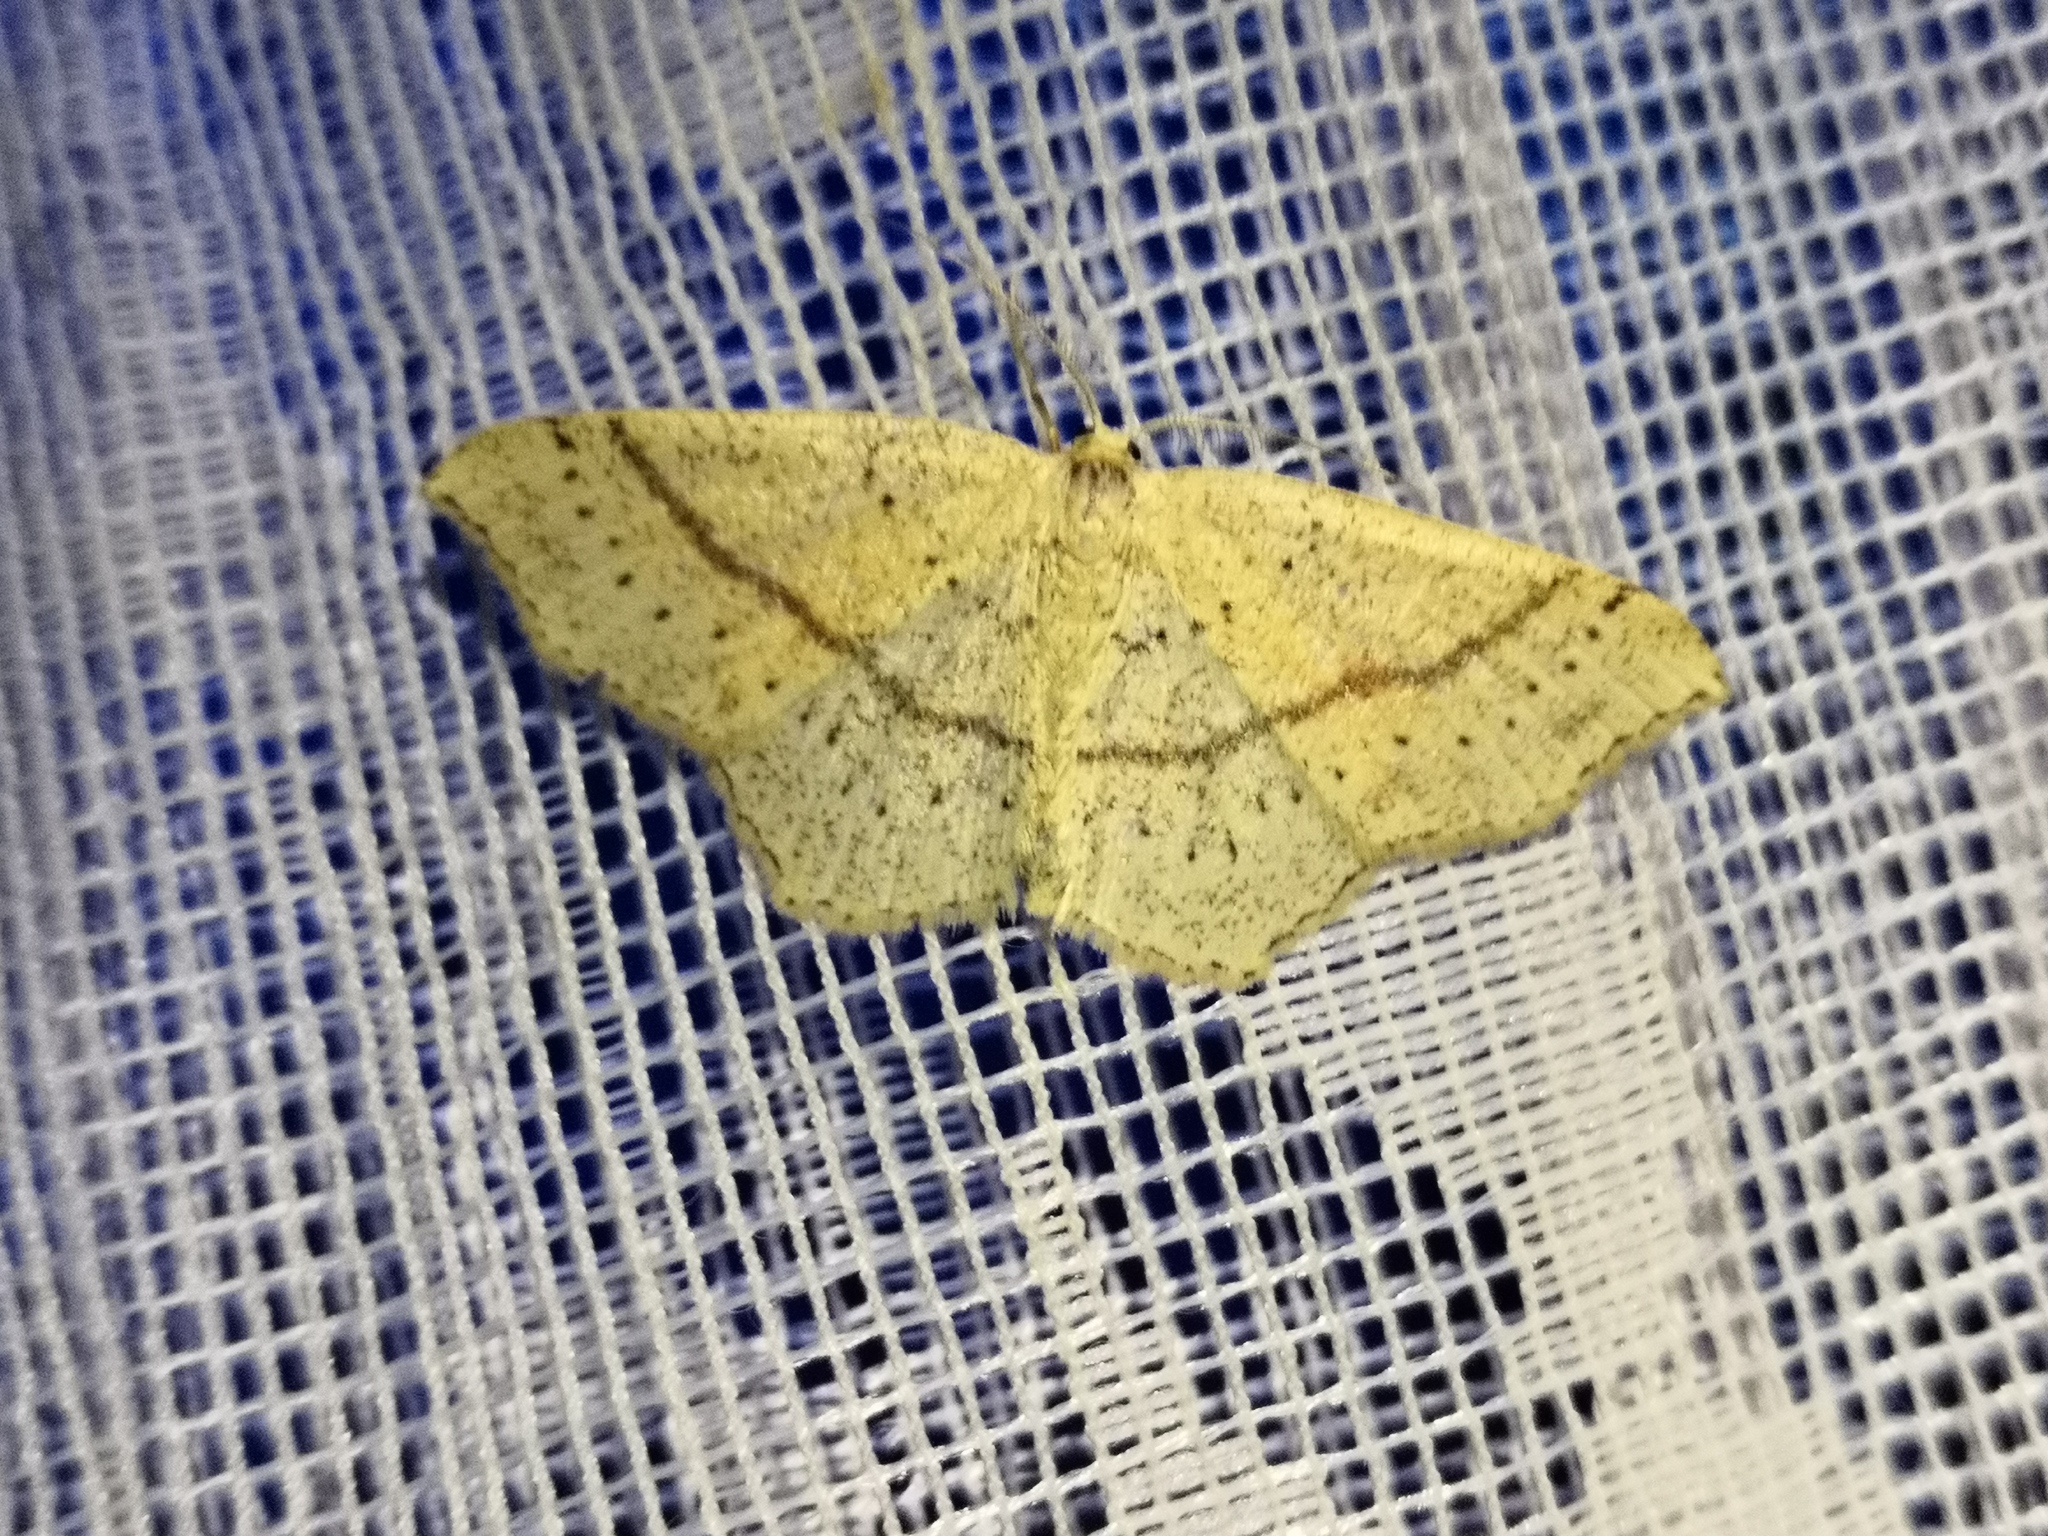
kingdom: Animalia
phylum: Arthropoda
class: Insecta
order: Lepidoptera
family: Geometridae
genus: Cyclophora
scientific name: Cyclophora punctaria
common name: Maiden's blush
